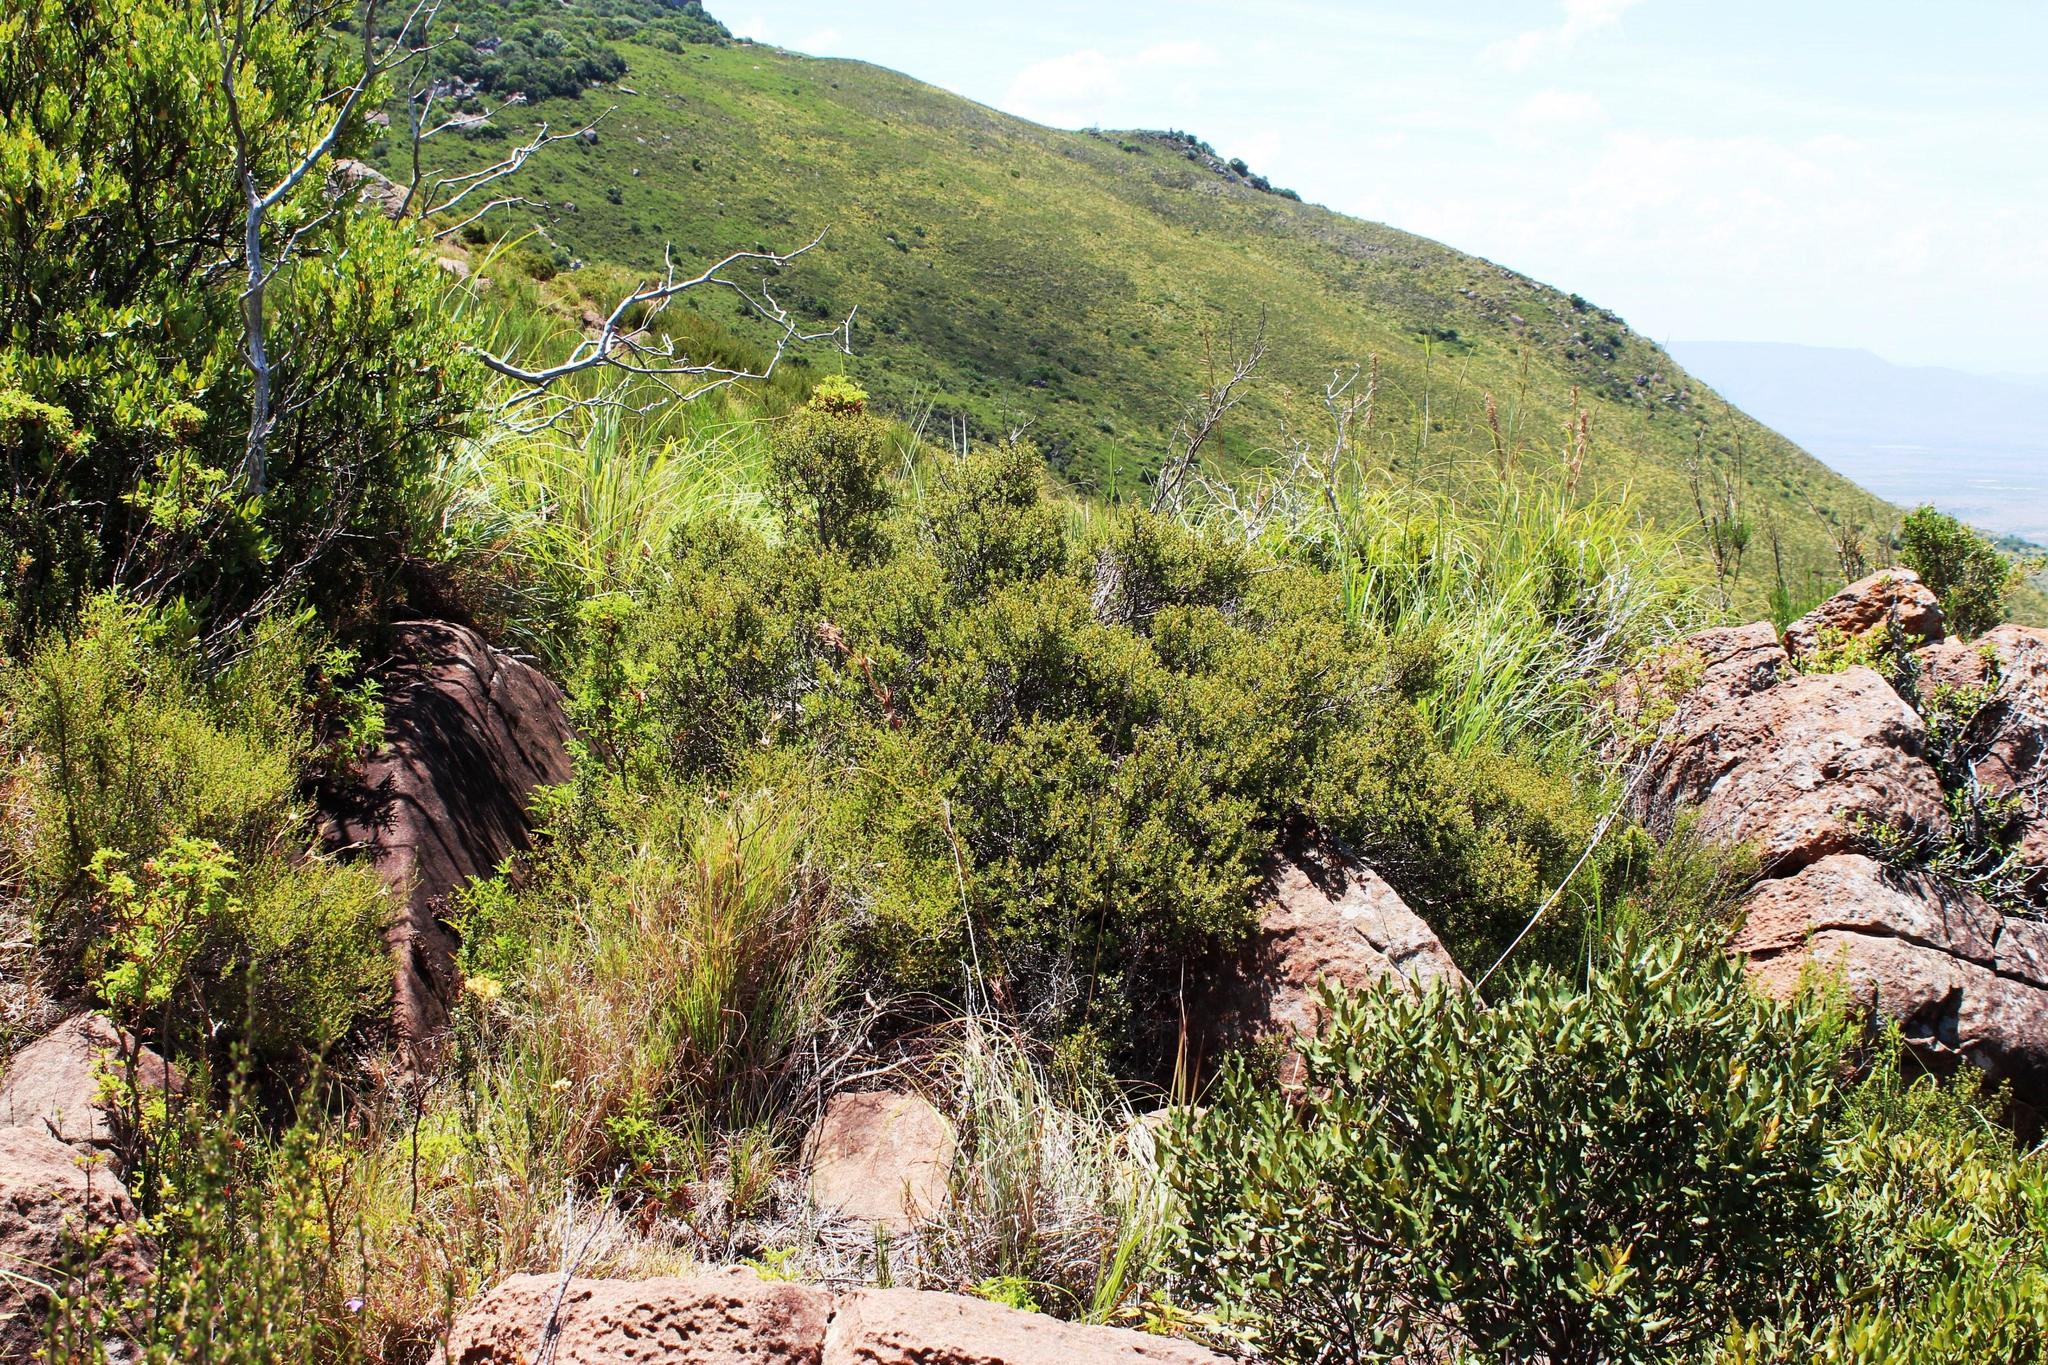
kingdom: Plantae
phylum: Tracheophyta
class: Magnoliopsida
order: Rosales
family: Rosaceae
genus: Cliffortia
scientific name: Cliffortia montana
